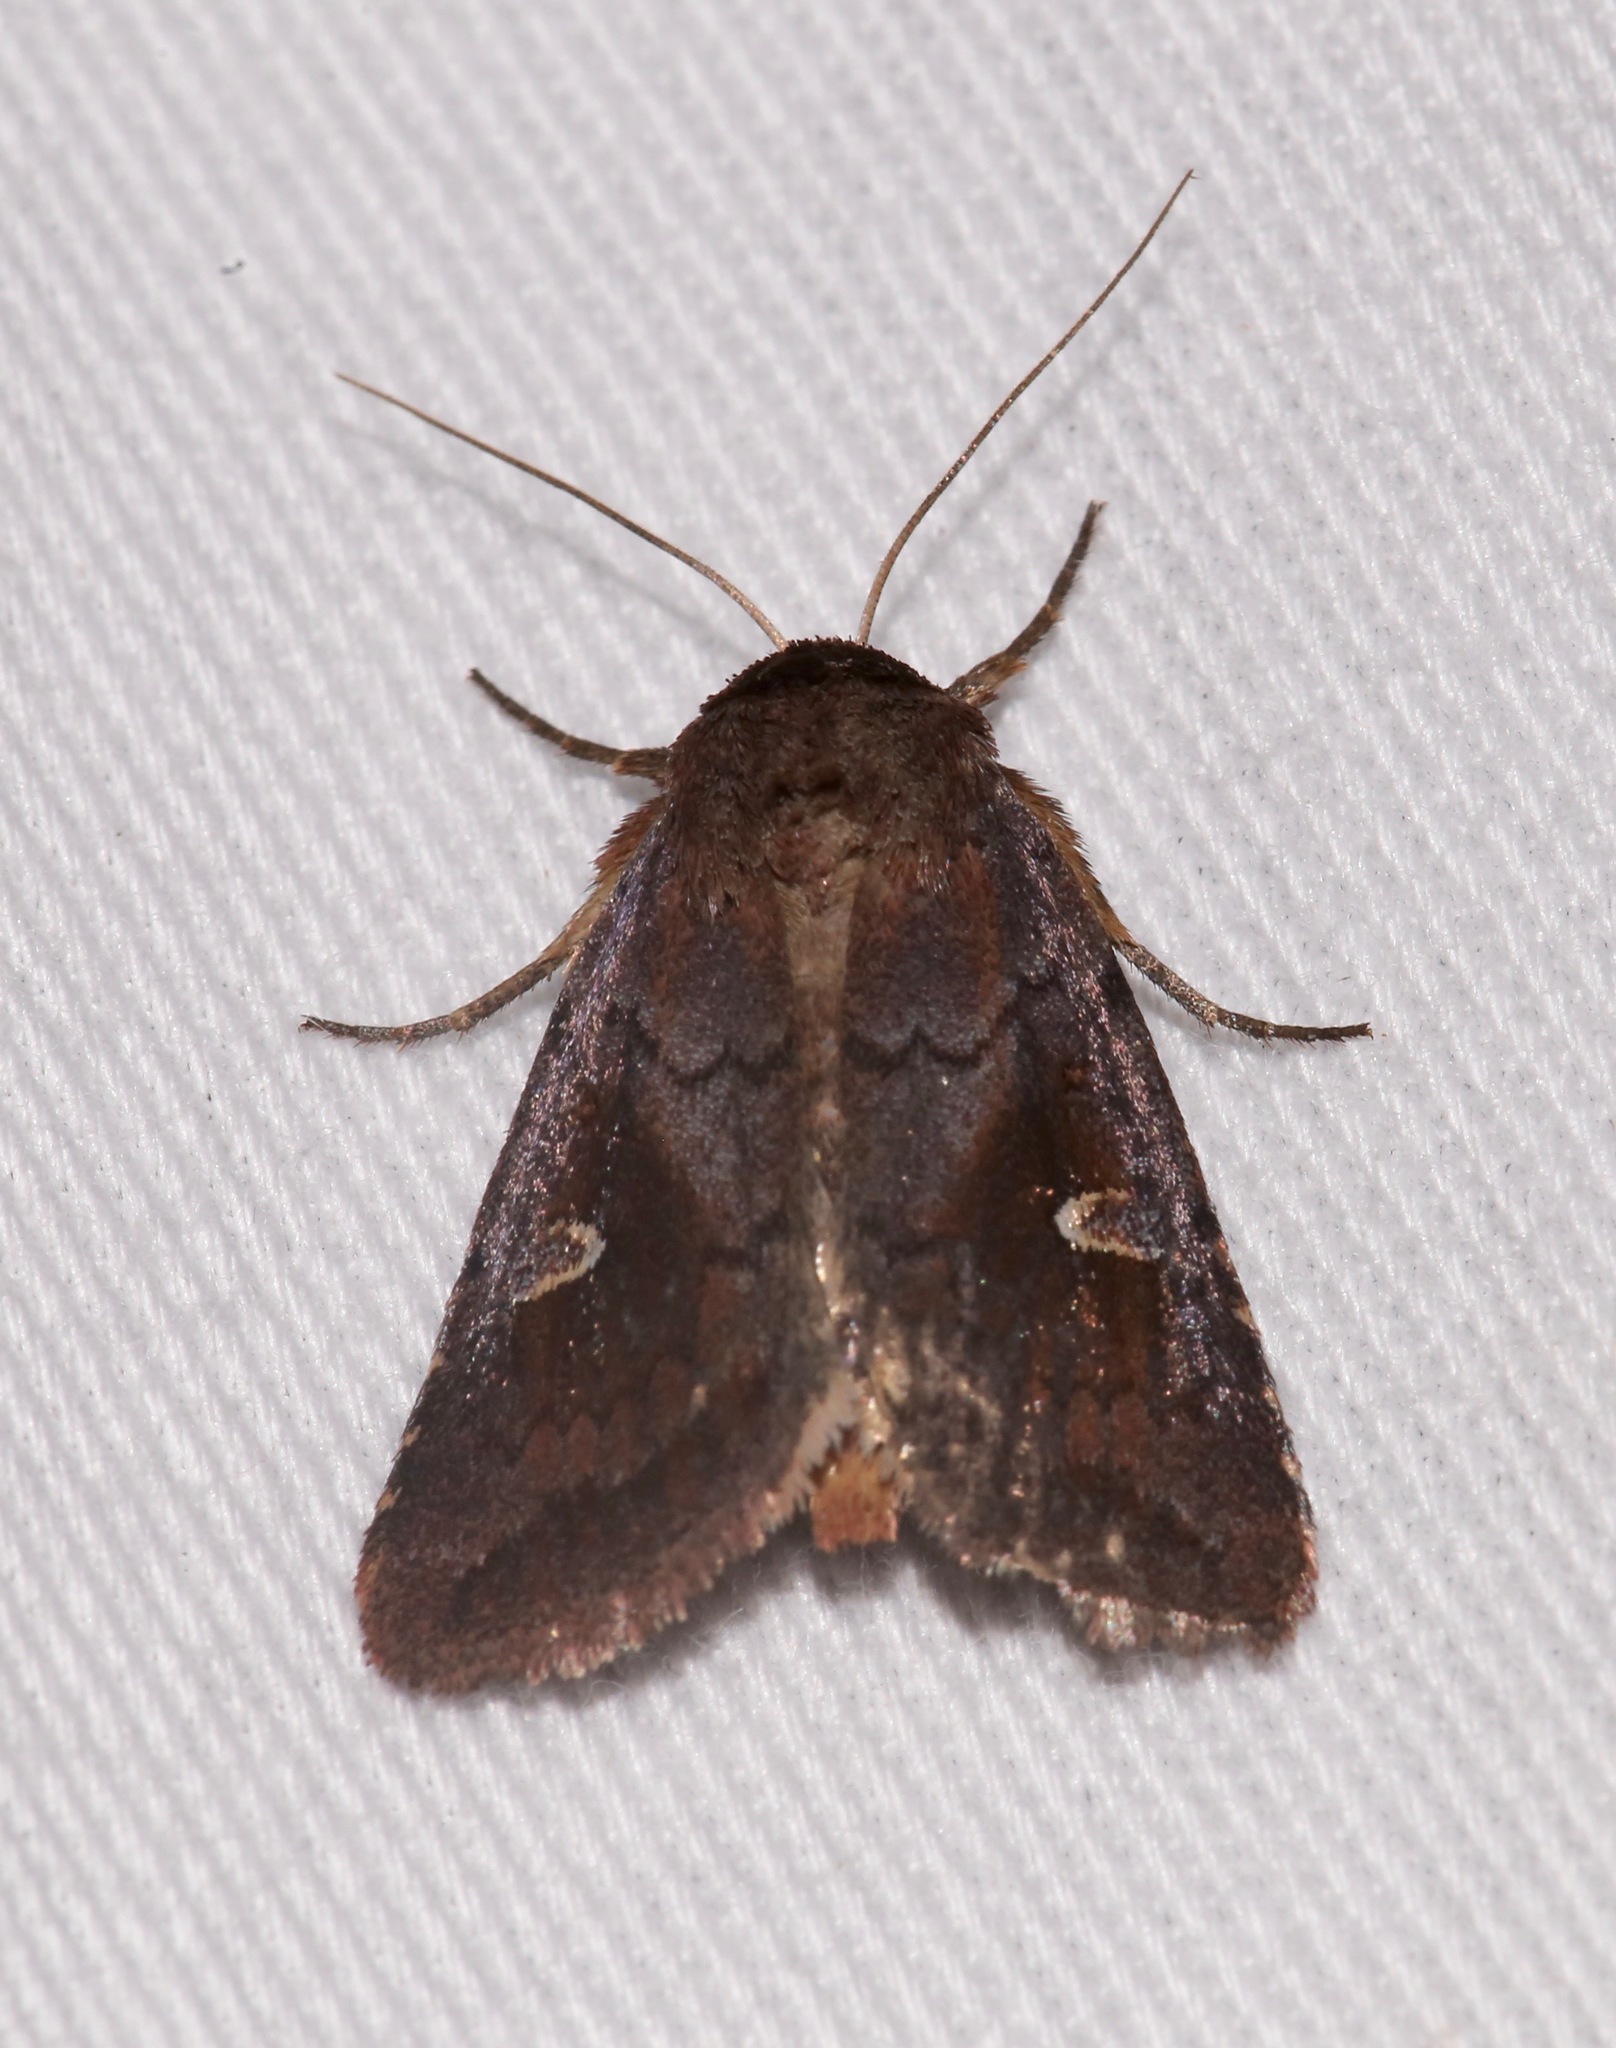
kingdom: Animalia
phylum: Arthropoda
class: Insecta
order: Lepidoptera
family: Noctuidae
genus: Iodopepla
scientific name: Iodopepla ualbum
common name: White-eyed borer moth
